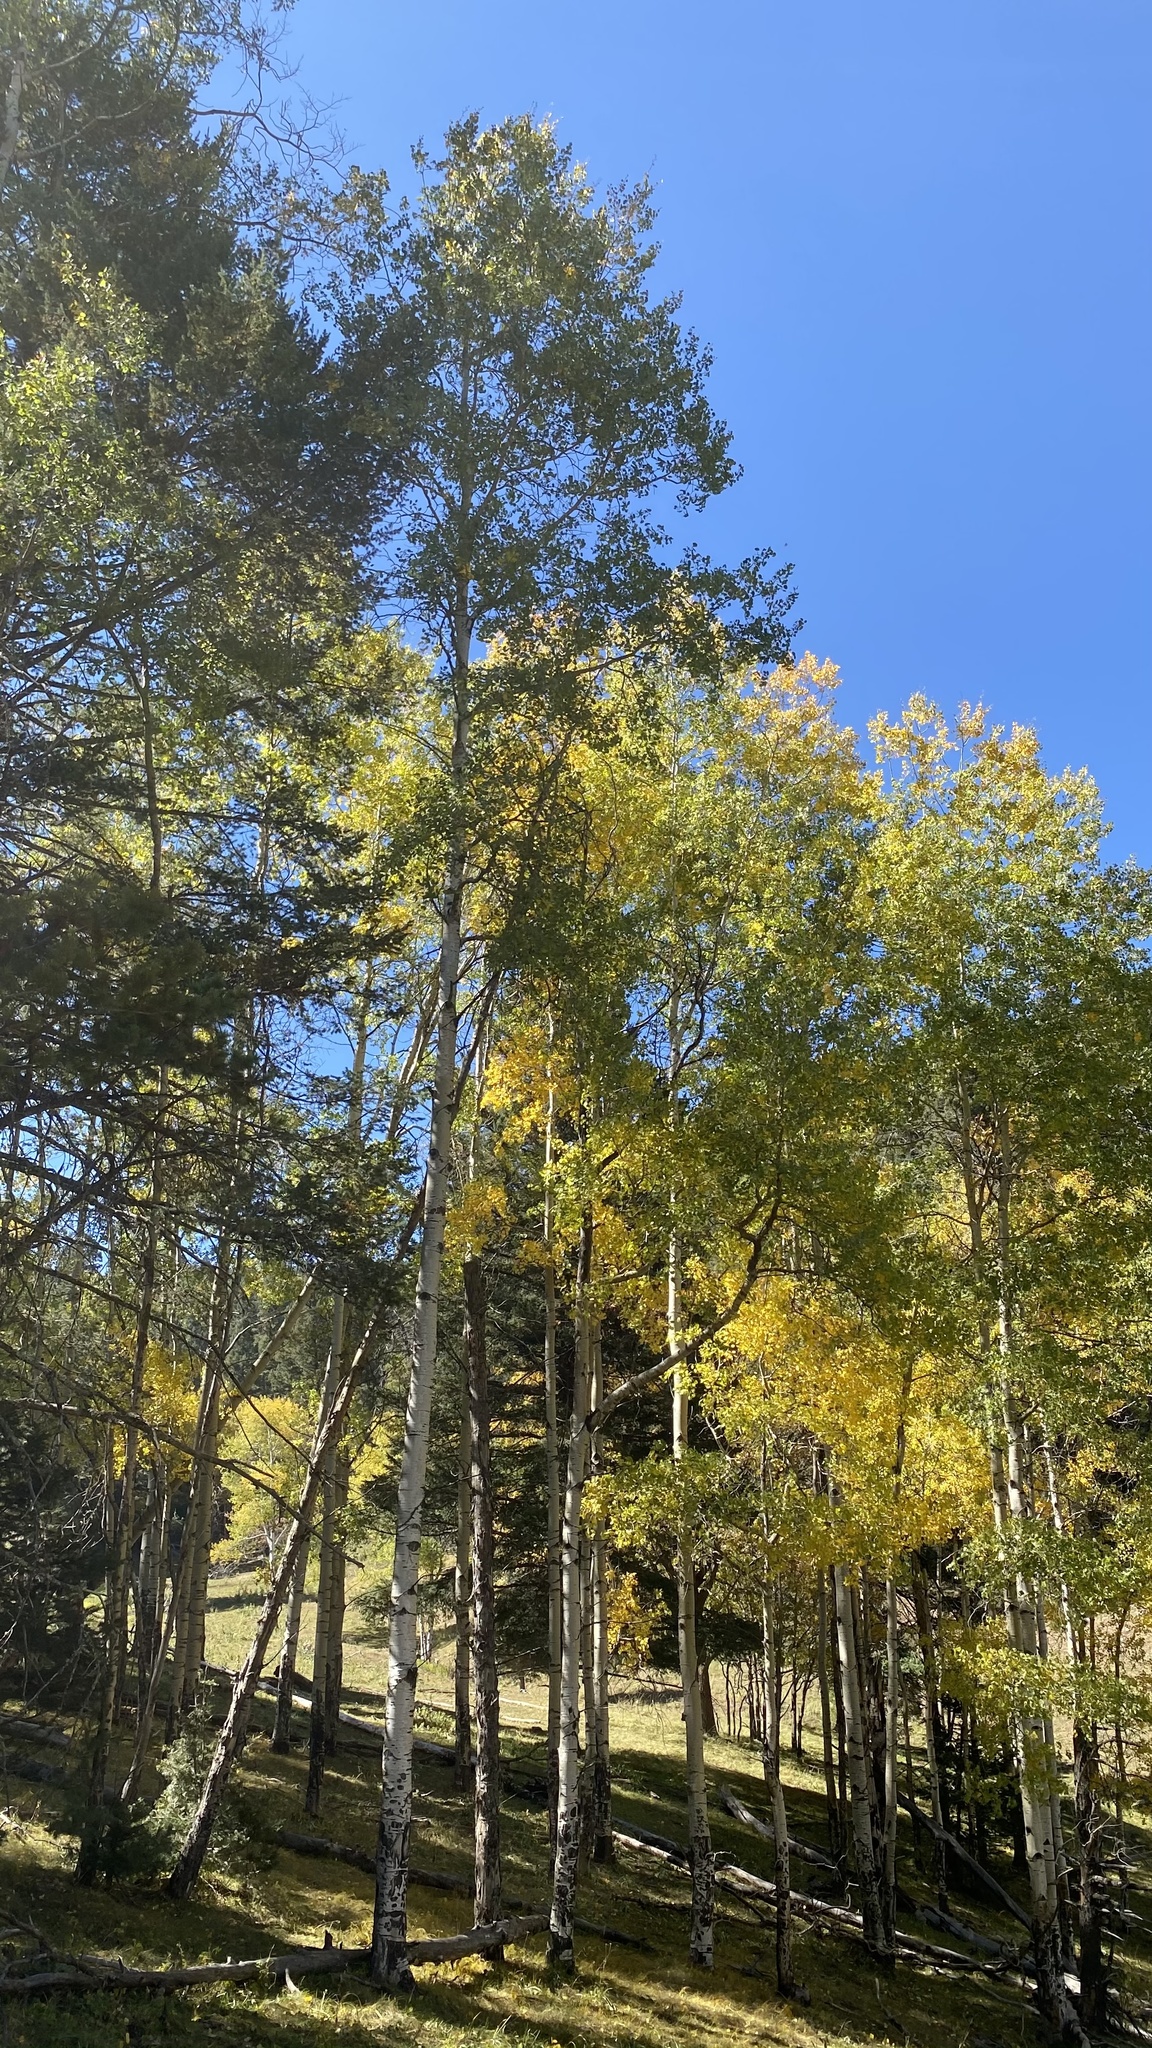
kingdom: Plantae
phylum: Tracheophyta
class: Magnoliopsida
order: Malpighiales
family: Salicaceae
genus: Populus
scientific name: Populus tremuloides
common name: Quaking aspen
